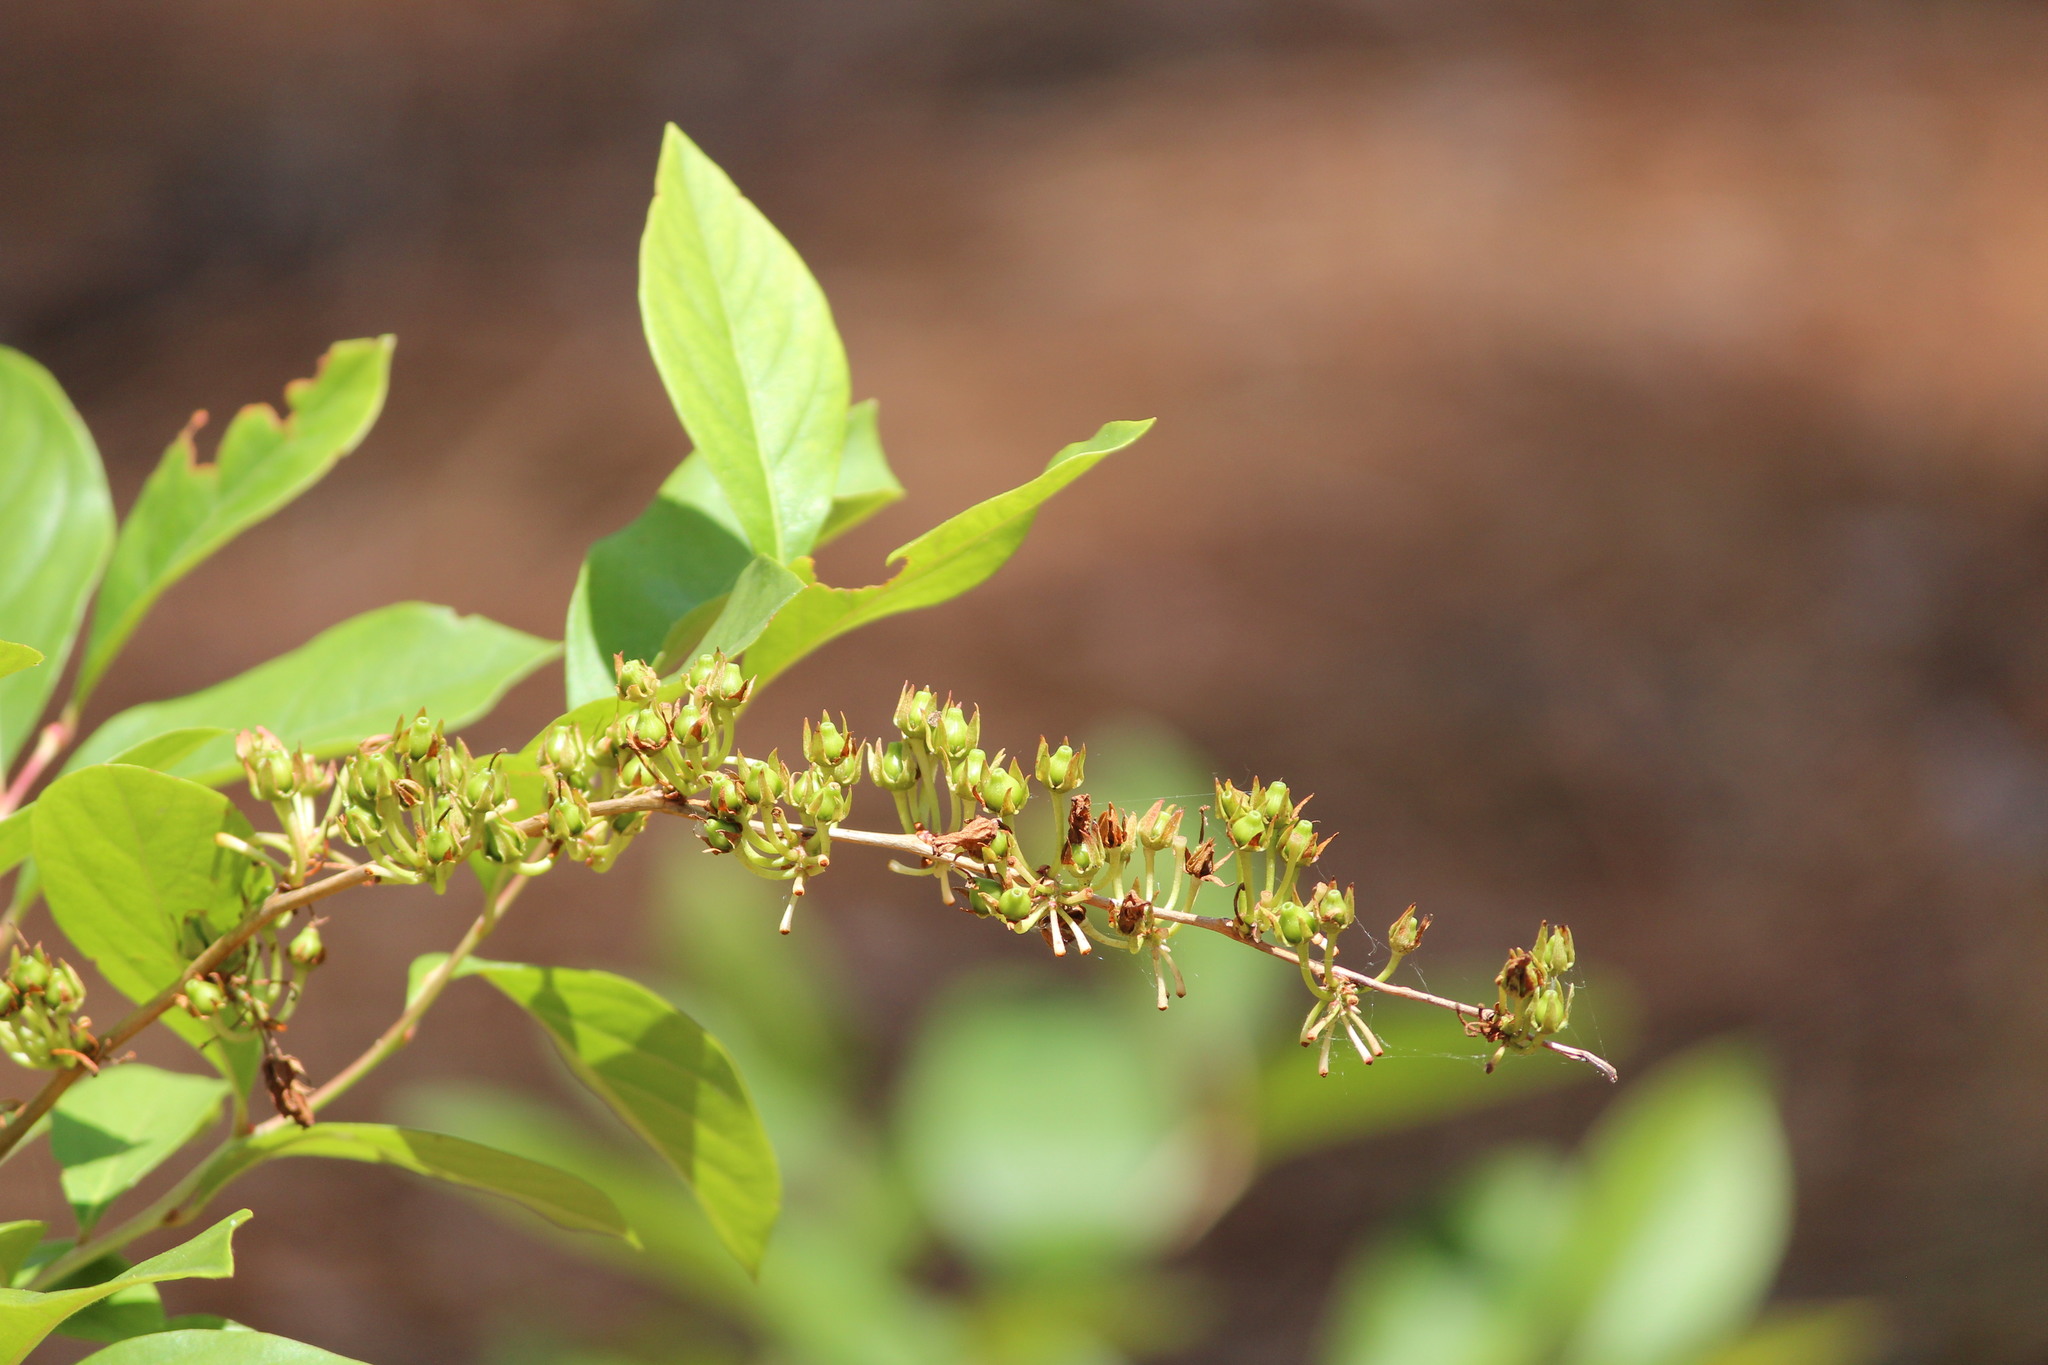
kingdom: Plantae
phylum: Tracheophyta
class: Magnoliopsida
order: Ericales
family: Ericaceae
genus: Lyonia
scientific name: Lyonia mariana
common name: Staggerbush
